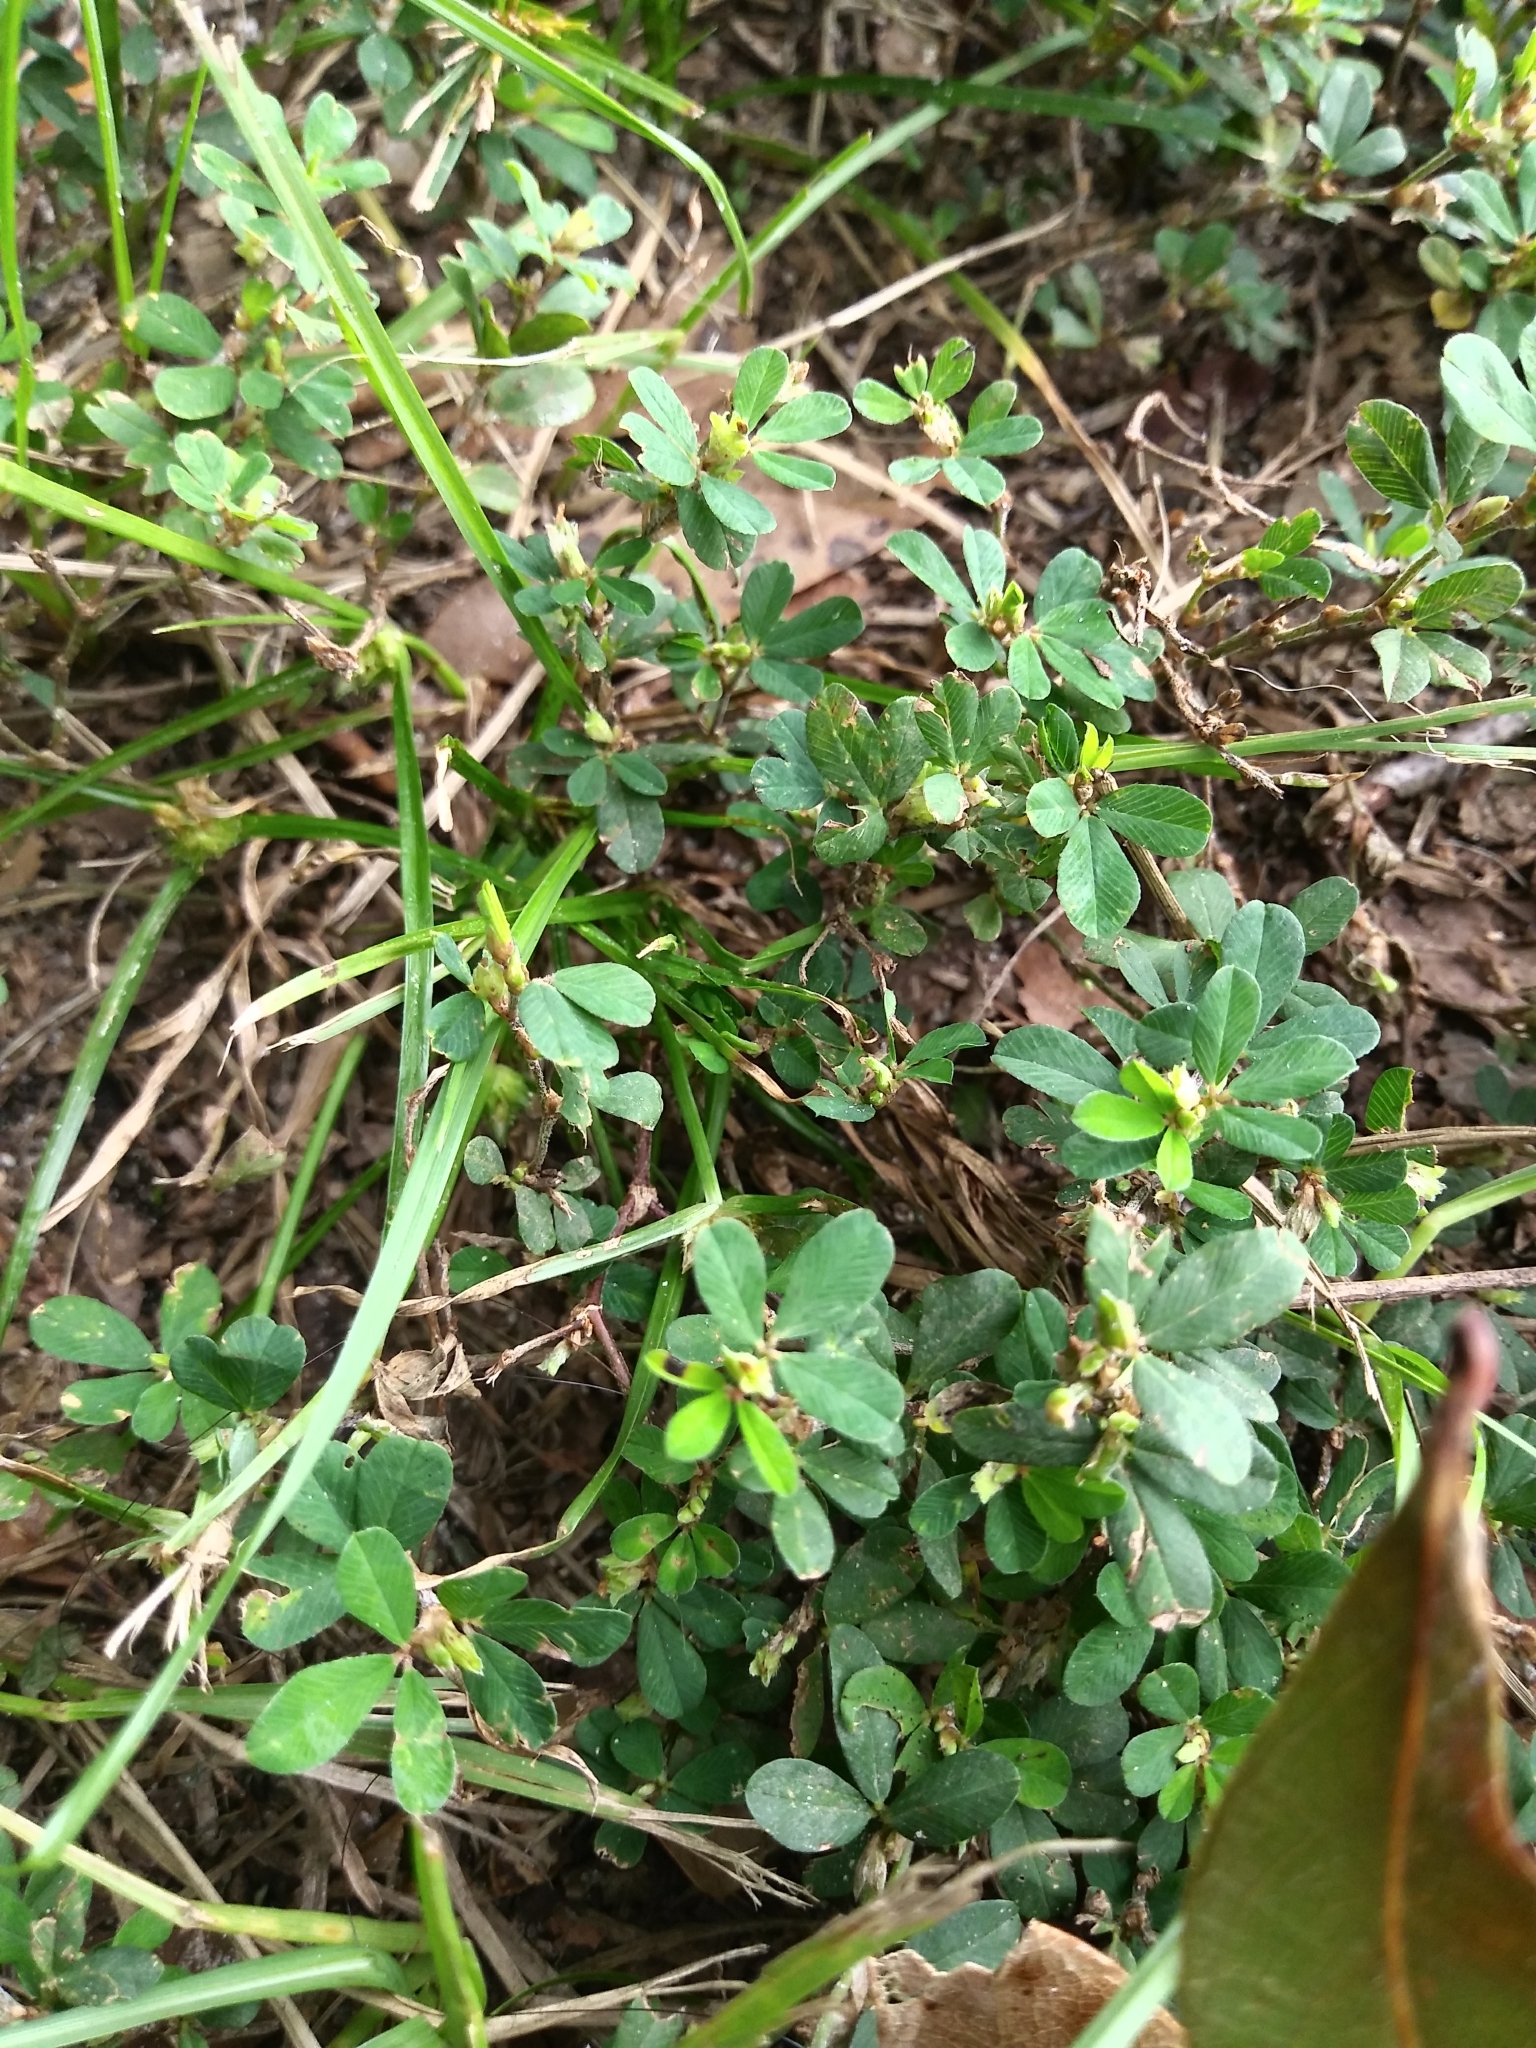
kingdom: Plantae
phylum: Tracheophyta
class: Magnoliopsida
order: Fabales
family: Fabaceae
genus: Kummerowia
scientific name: Kummerowia striata
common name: Japanese clover
